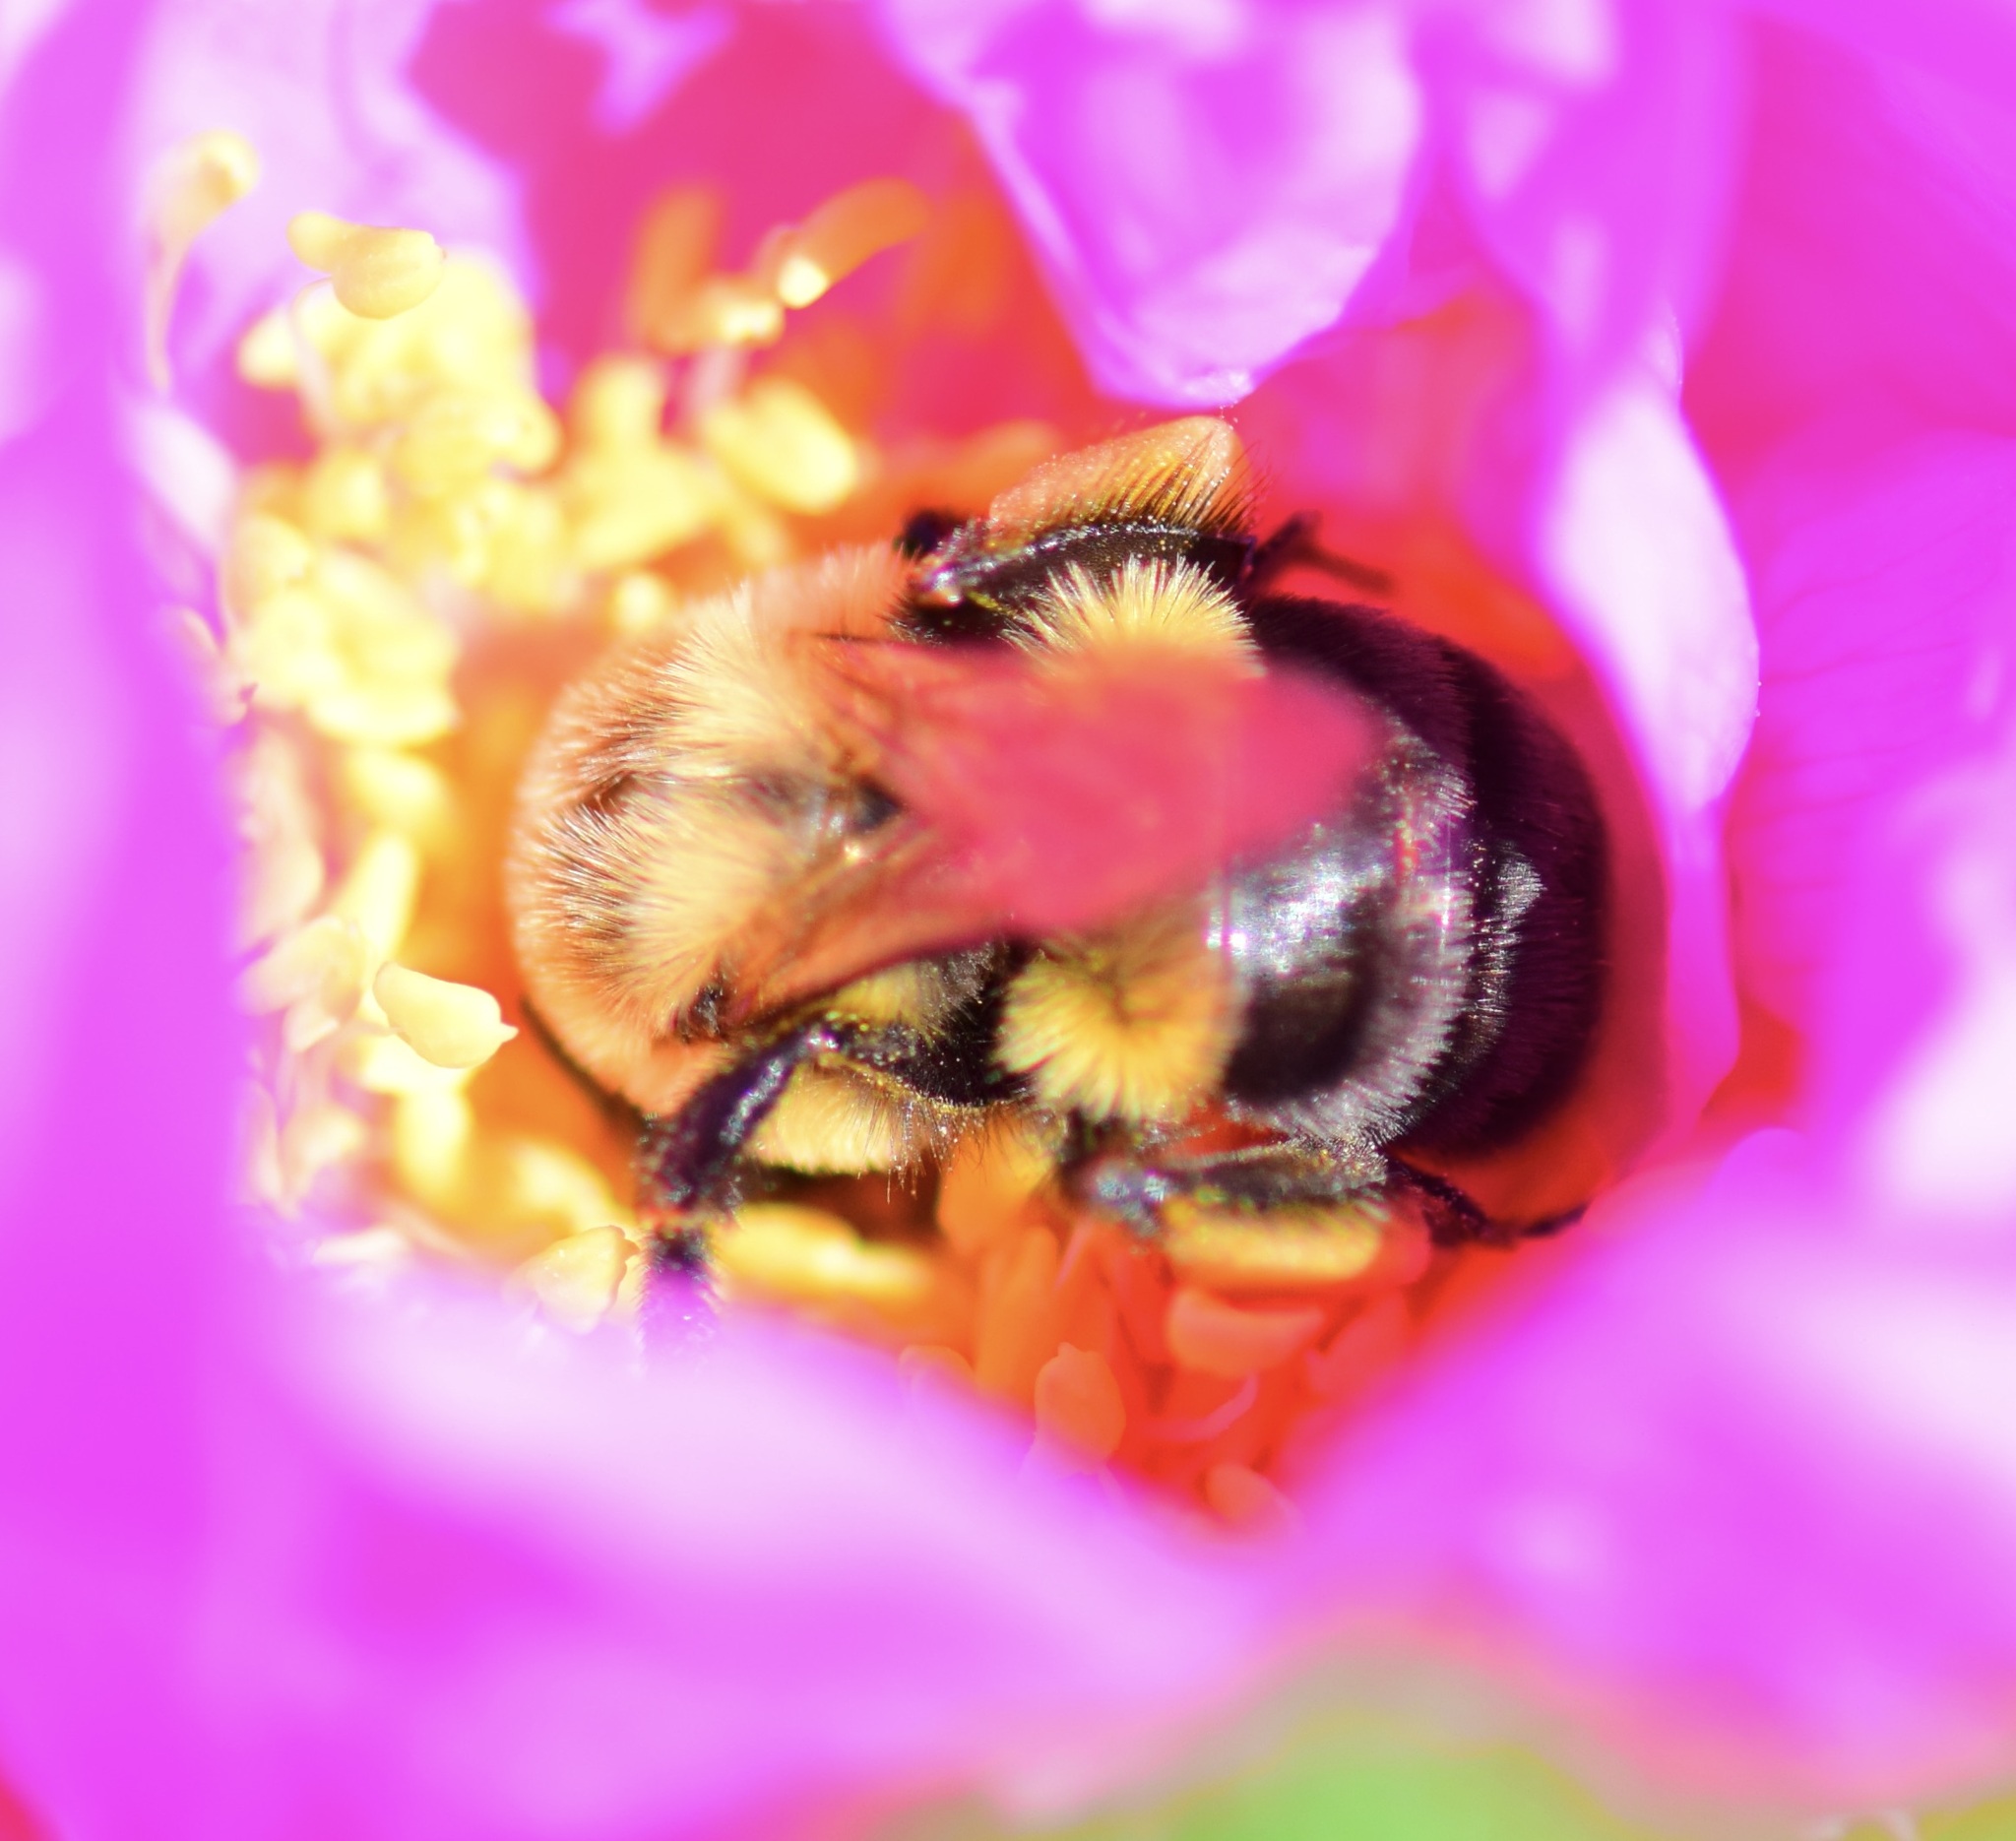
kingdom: Animalia
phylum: Arthropoda
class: Insecta
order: Hymenoptera
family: Apidae
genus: Bombus
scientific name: Bombus impatiens
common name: Common eastern bumble bee
